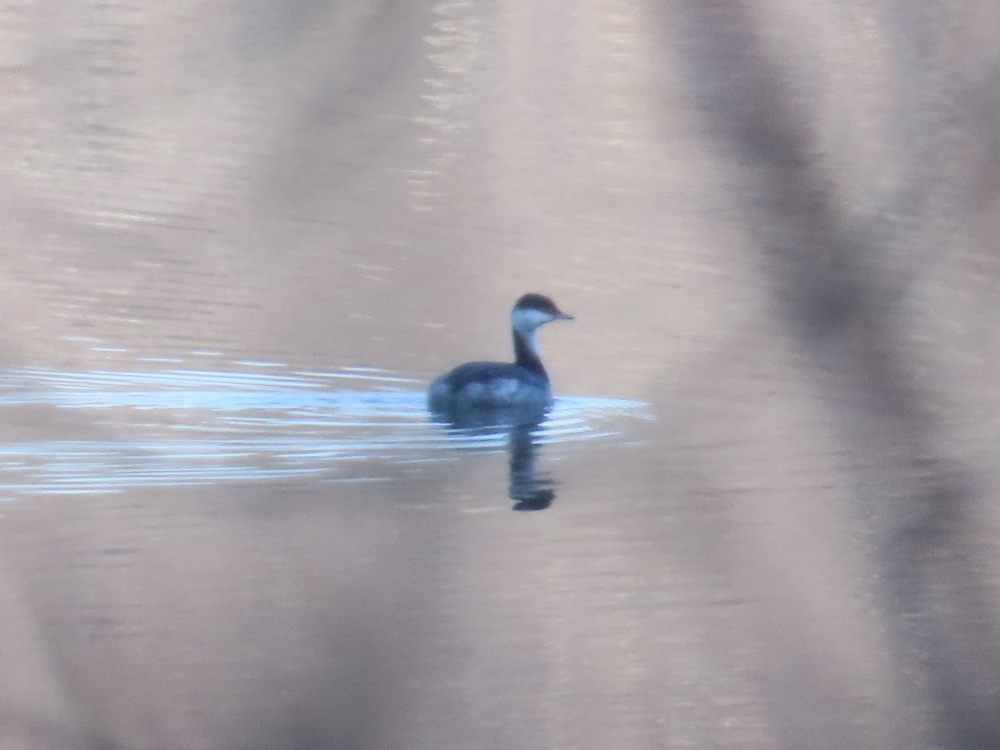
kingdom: Animalia
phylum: Chordata
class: Aves
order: Podicipediformes
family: Podicipedidae
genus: Podiceps
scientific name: Podiceps auritus
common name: Horned grebe
